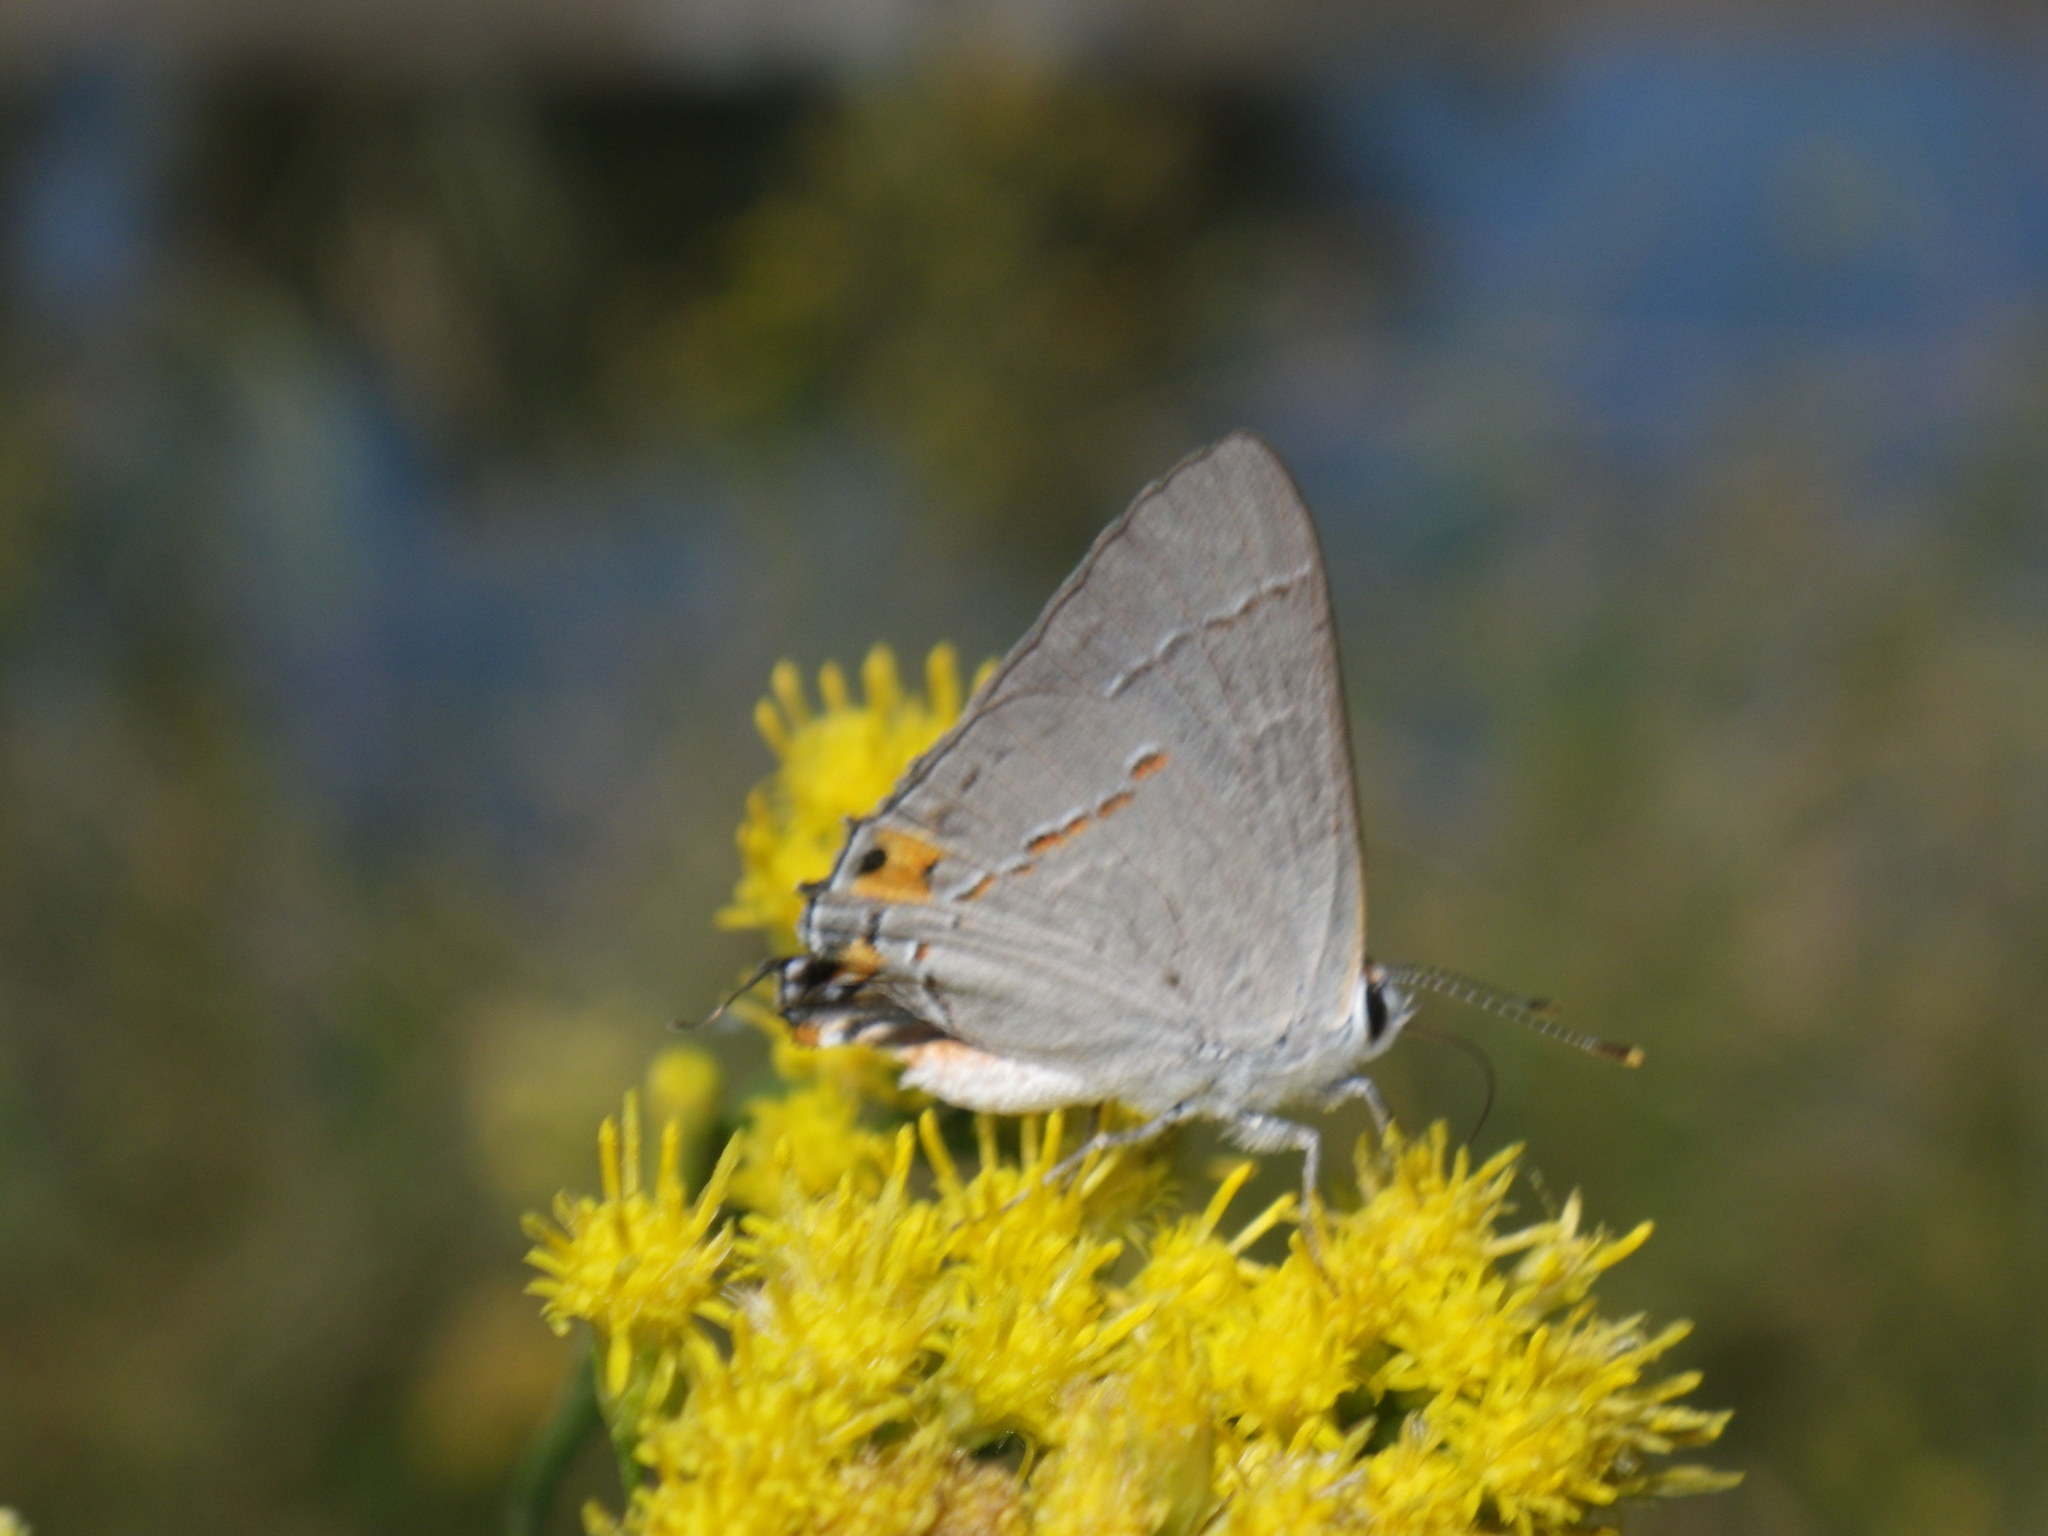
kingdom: Animalia
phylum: Arthropoda
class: Insecta
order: Lepidoptera
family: Lycaenidae
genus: Strymon
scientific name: Strymon melinus
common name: Gray hairstreak
